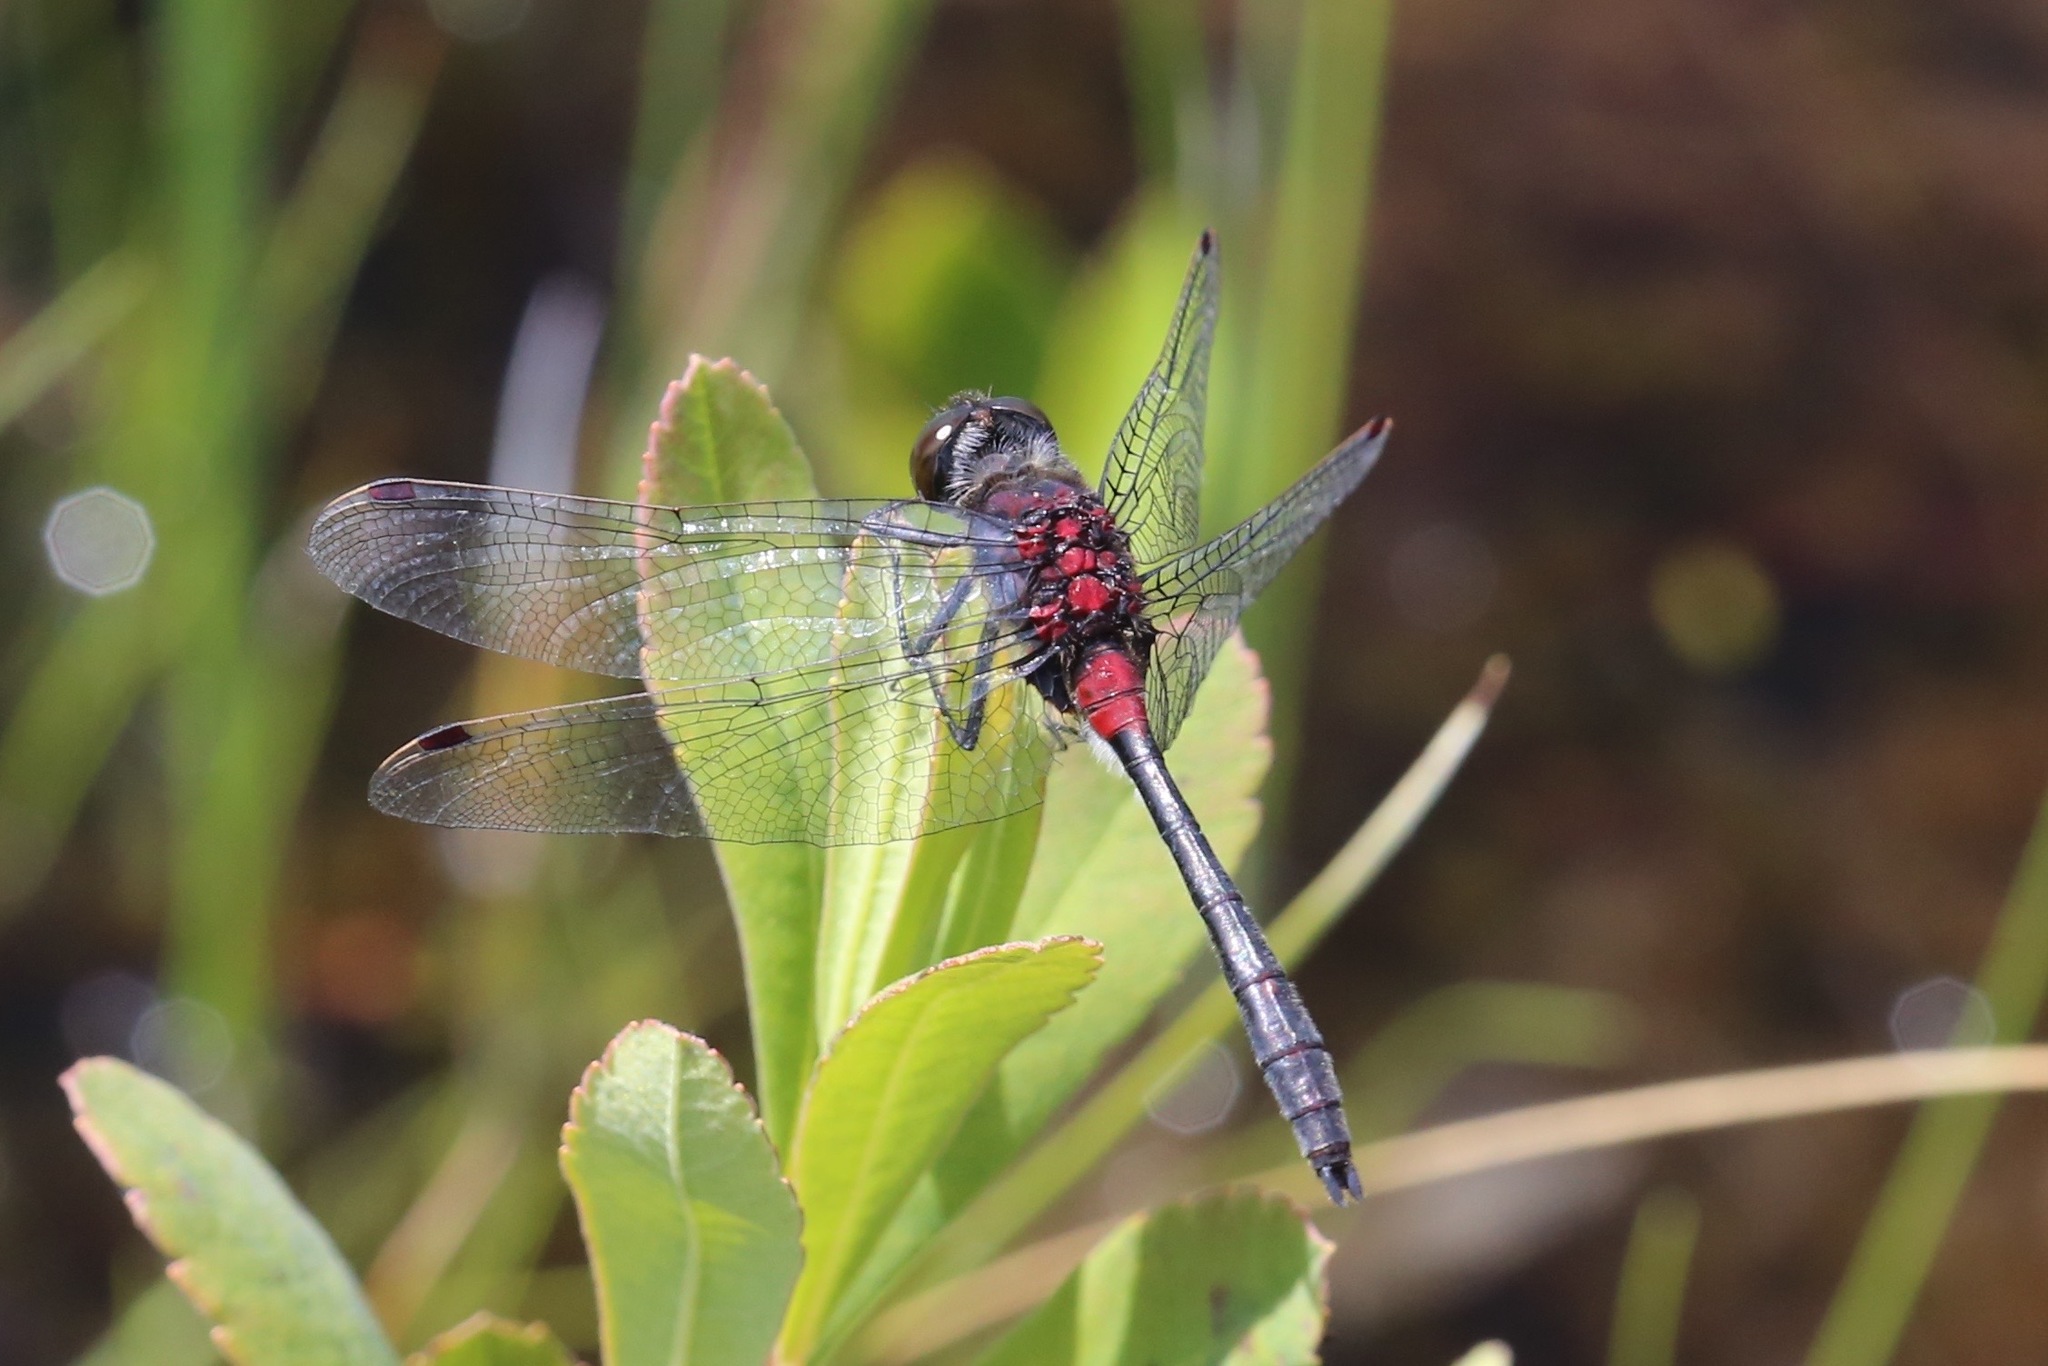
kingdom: Animalia
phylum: Arthropoda
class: Insecta
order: Odonata
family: Libellulidae
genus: Leucorrhinia
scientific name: Leucorrhinia glacialis
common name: Crimson-ringed whiteface
